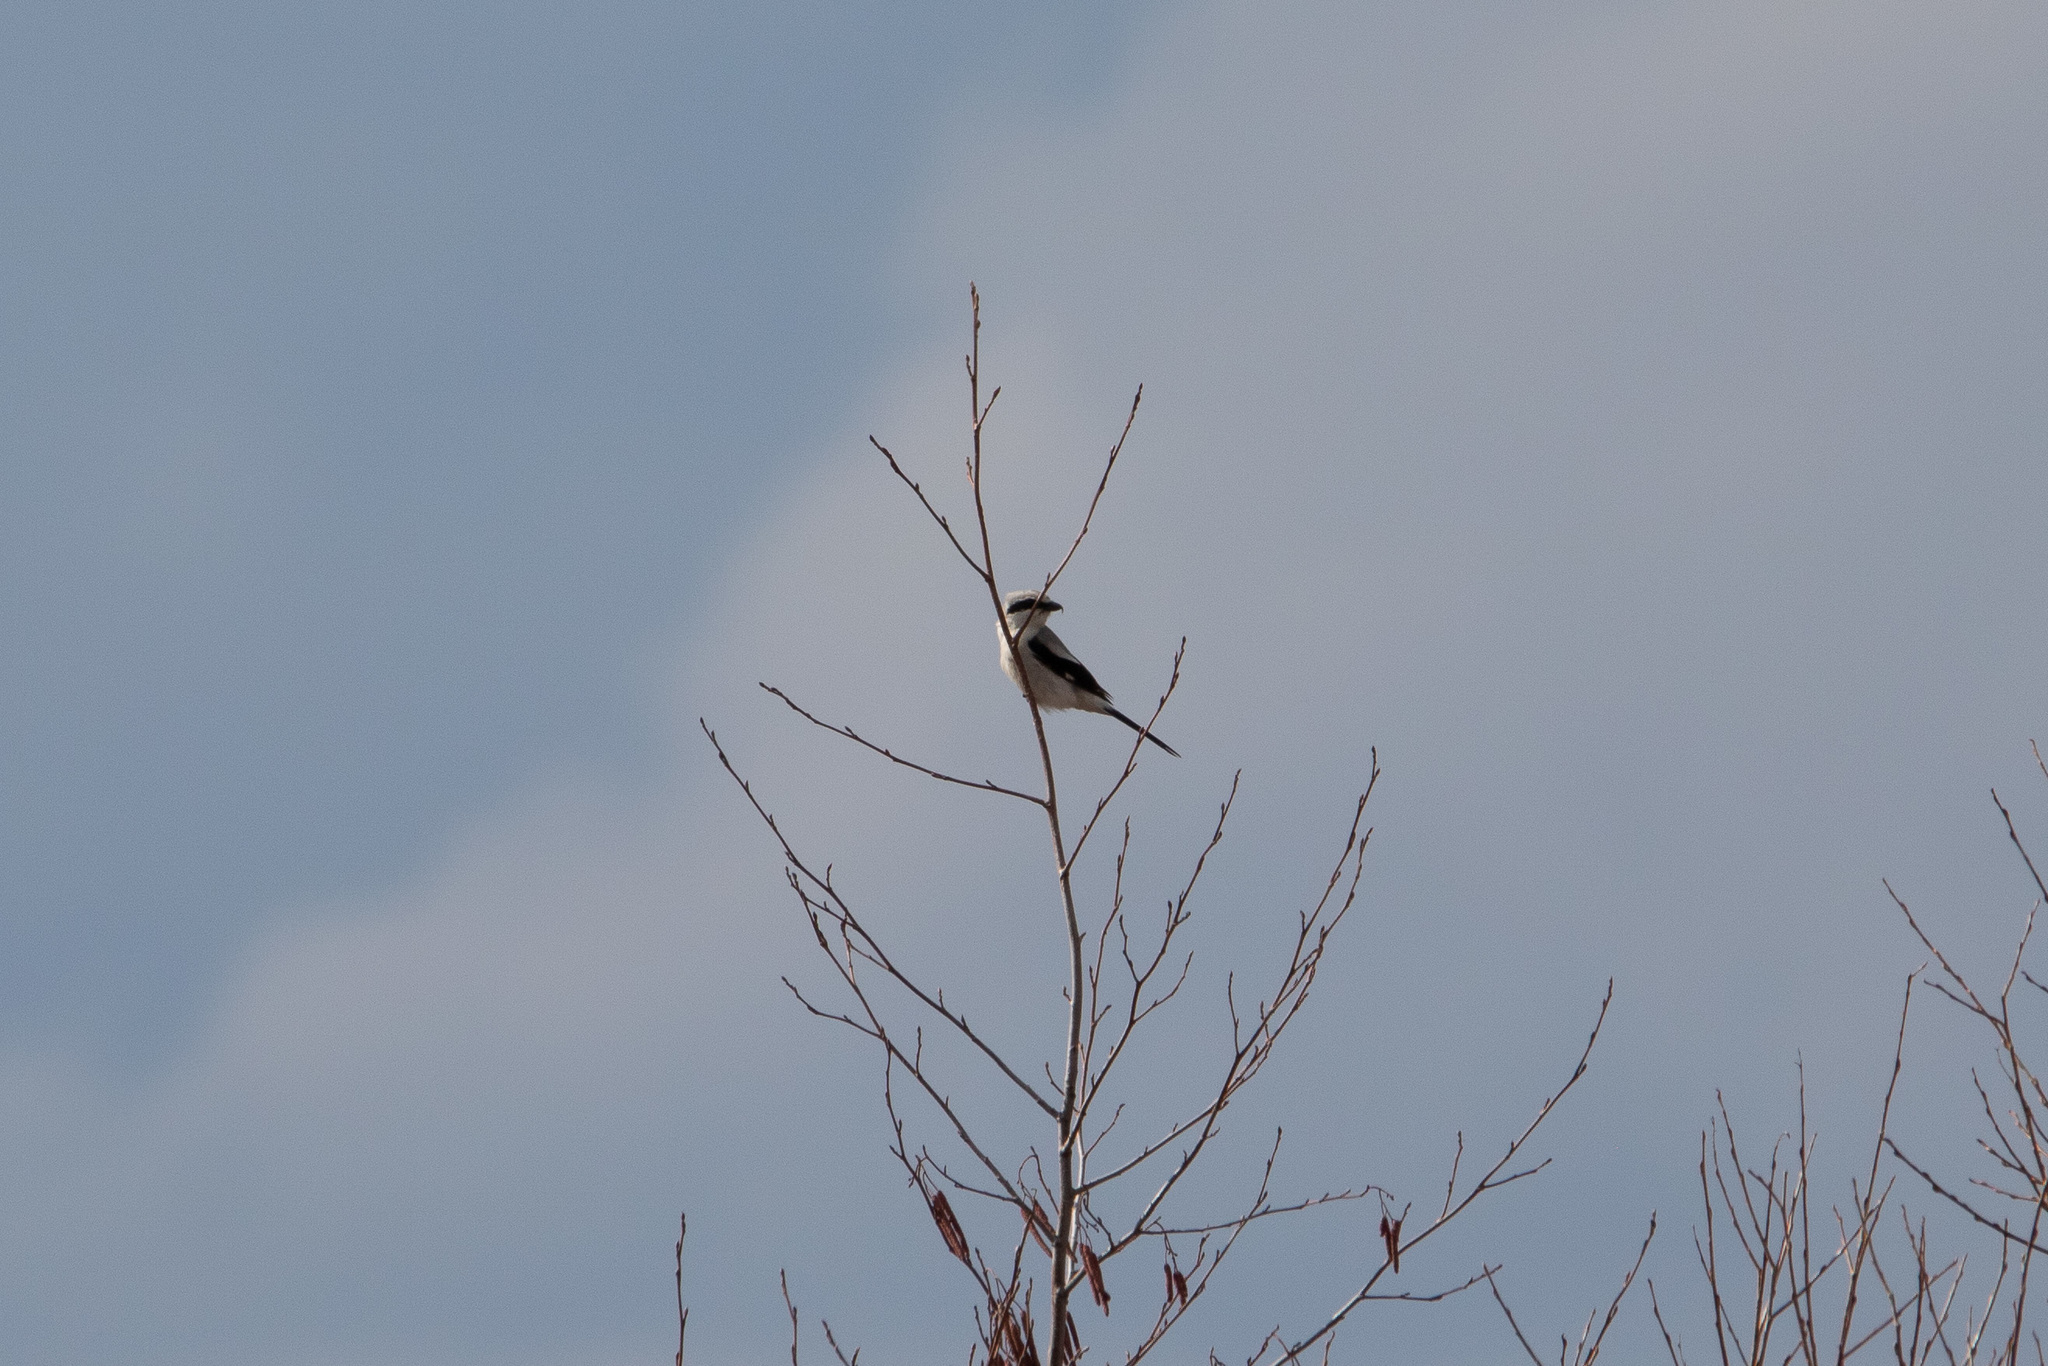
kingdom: Animalia
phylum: Chordata
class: Aves
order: Passeriformes
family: Laniidae
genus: Lanius
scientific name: Lanius excubitor
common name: Great grey shrike
